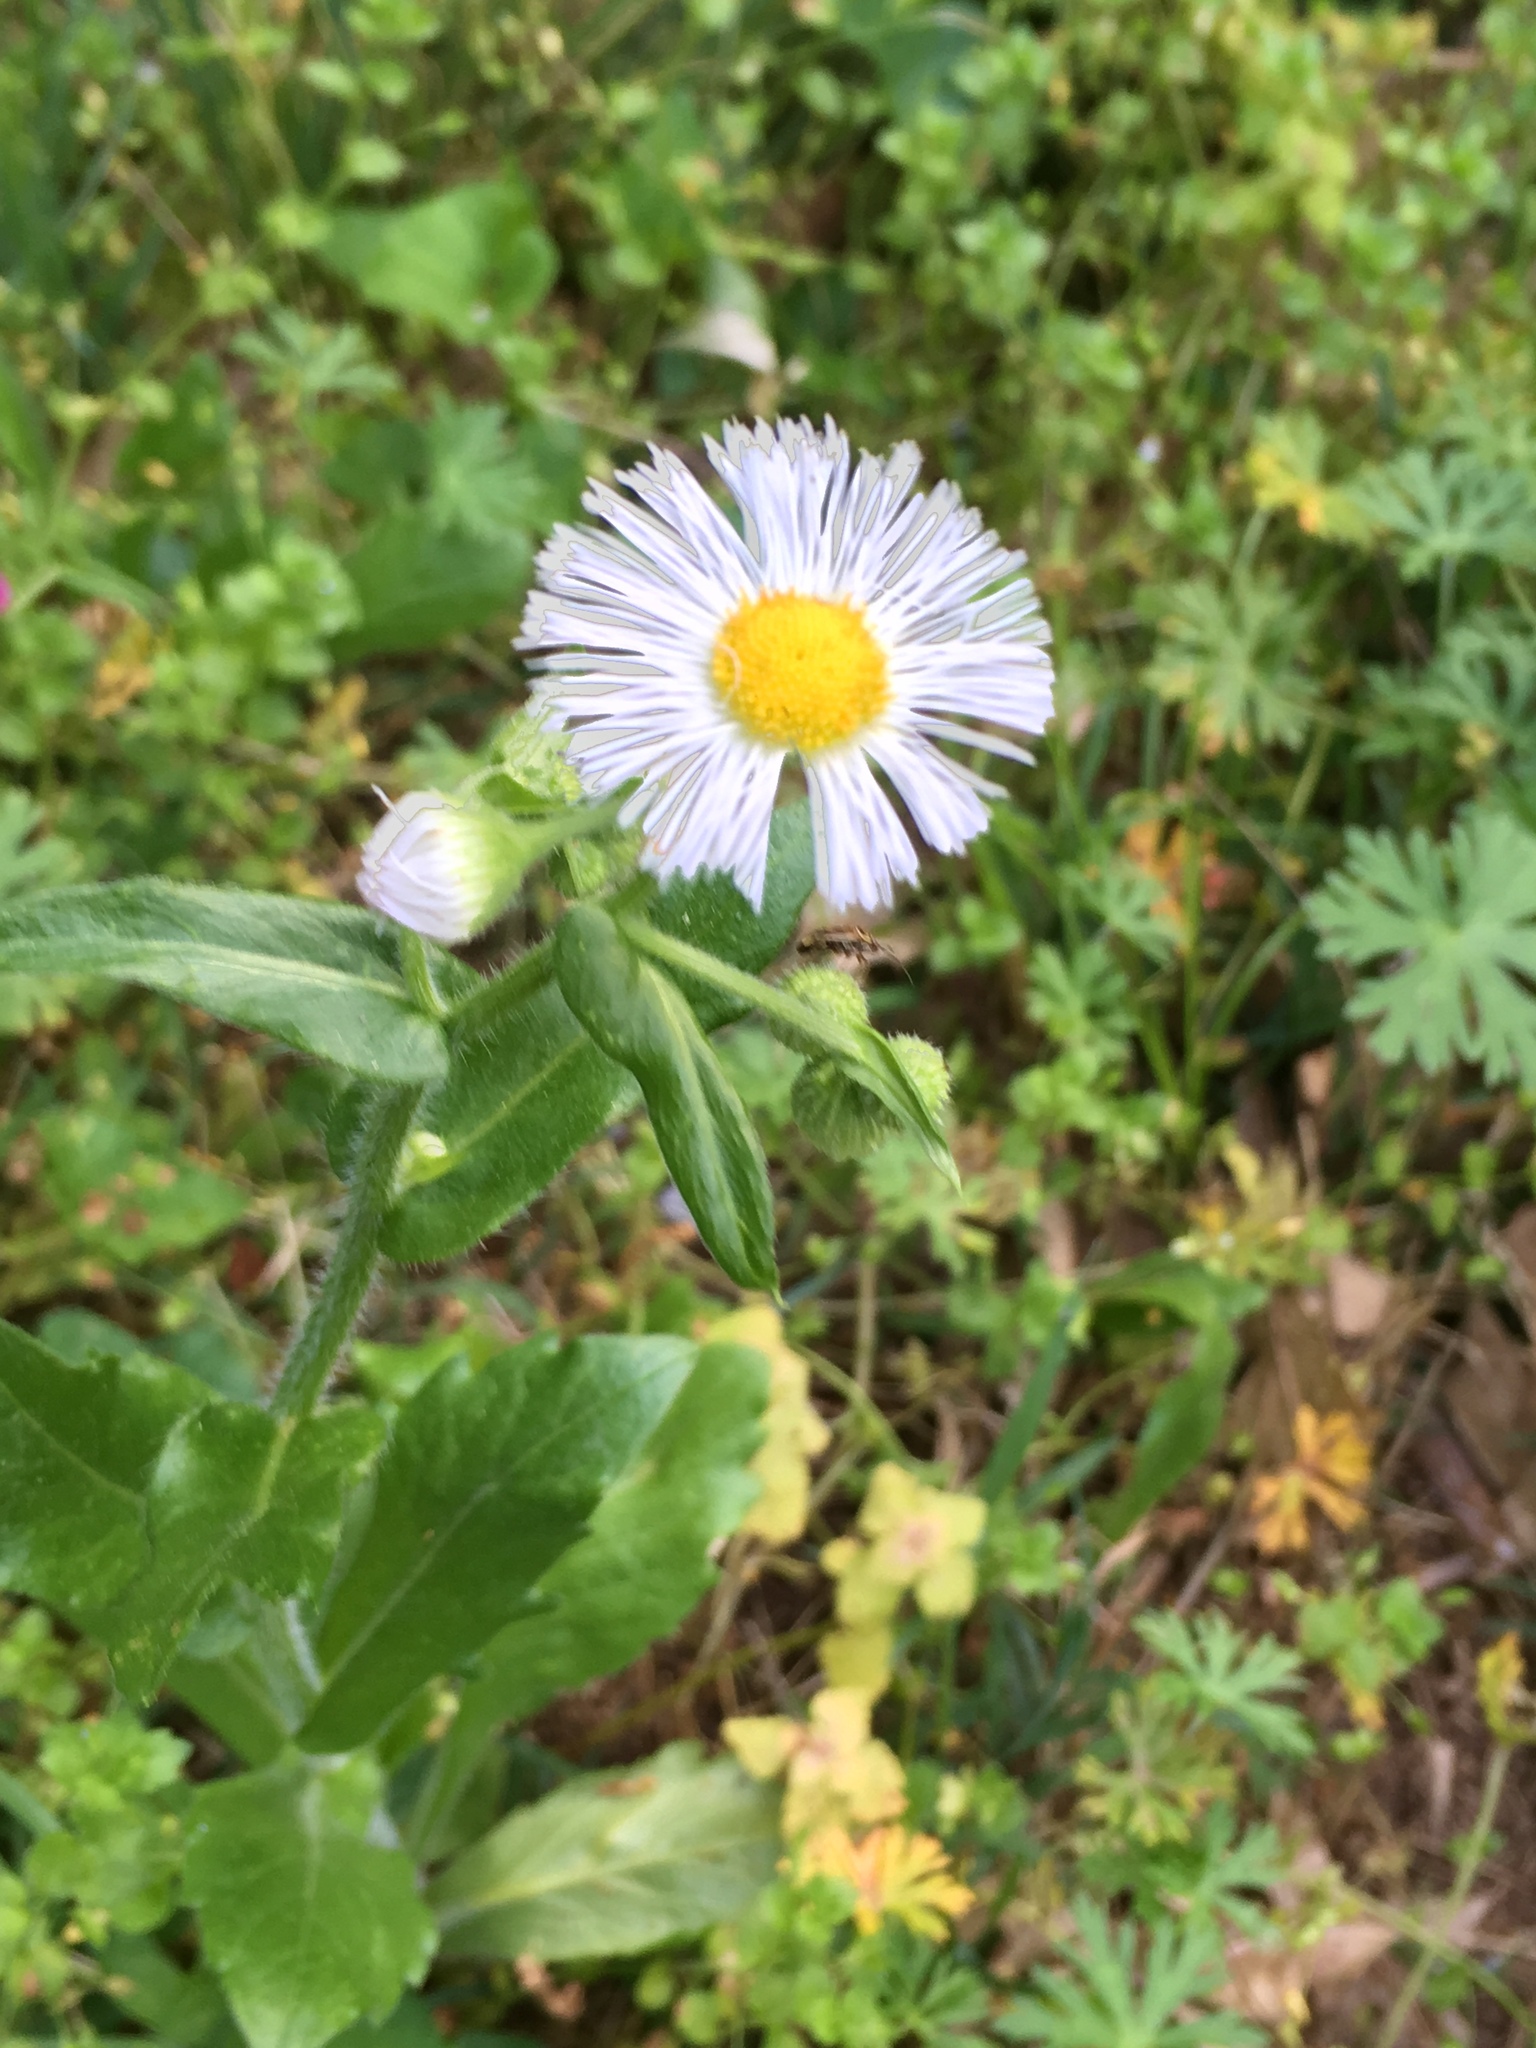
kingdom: Plantae
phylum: Tracheophyta
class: Magnoliopsida
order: Asterales
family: Asteraceae
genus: Erigeron
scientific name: Erigeron philadelphicus
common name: Robin's-plantain
